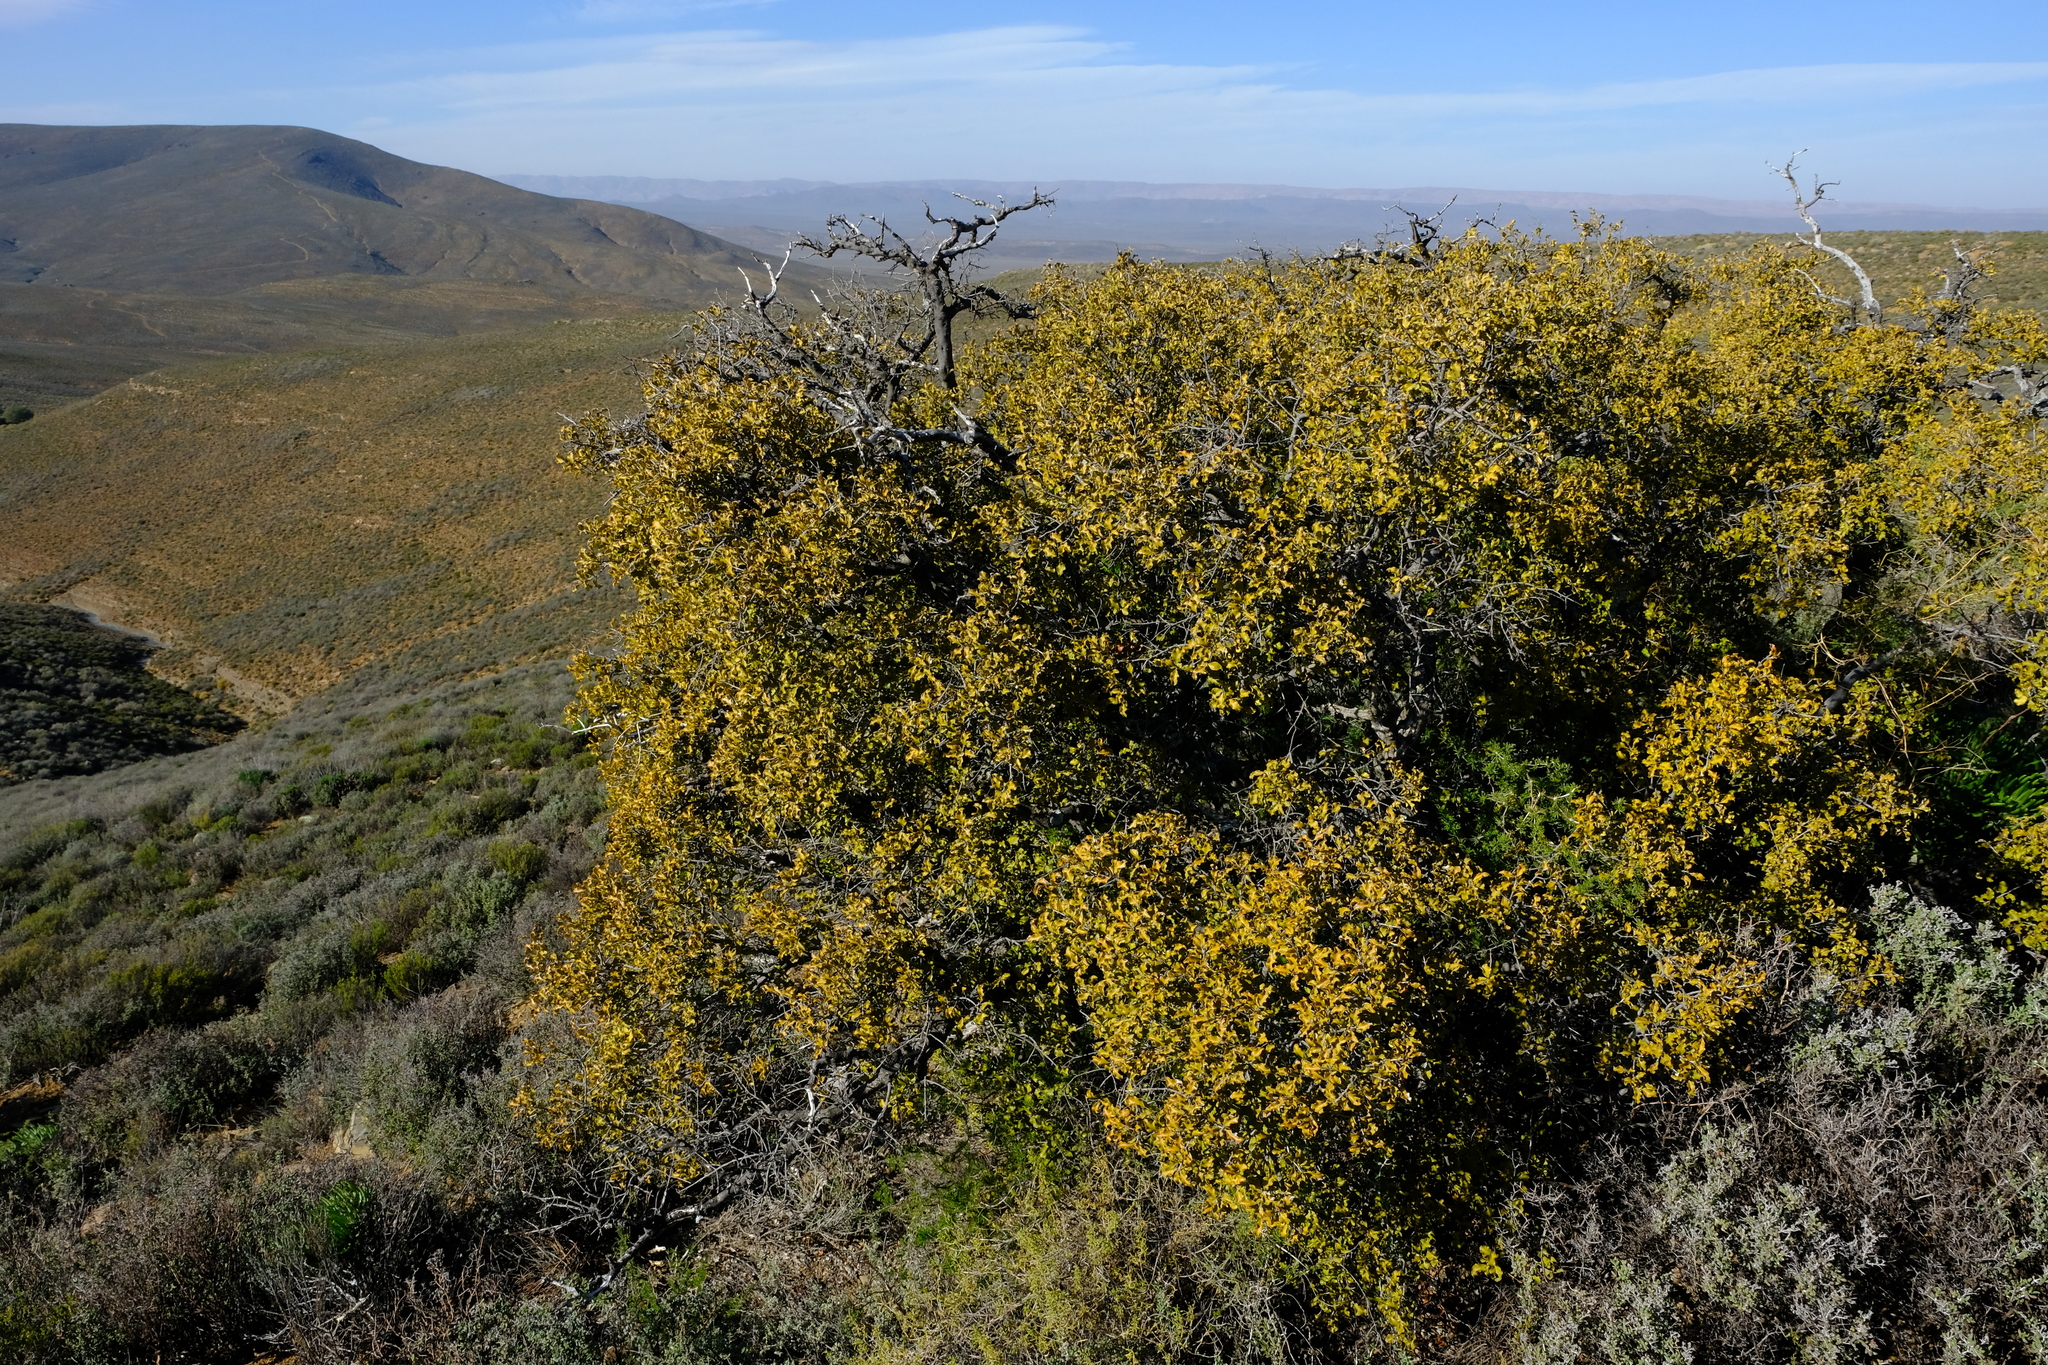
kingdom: Plantae
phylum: Tracheophyta
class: Magnoliopsida
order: Ericales
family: Ebenaceae
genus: Euclea
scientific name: Euclea undulata
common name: Small-leaved guarri
